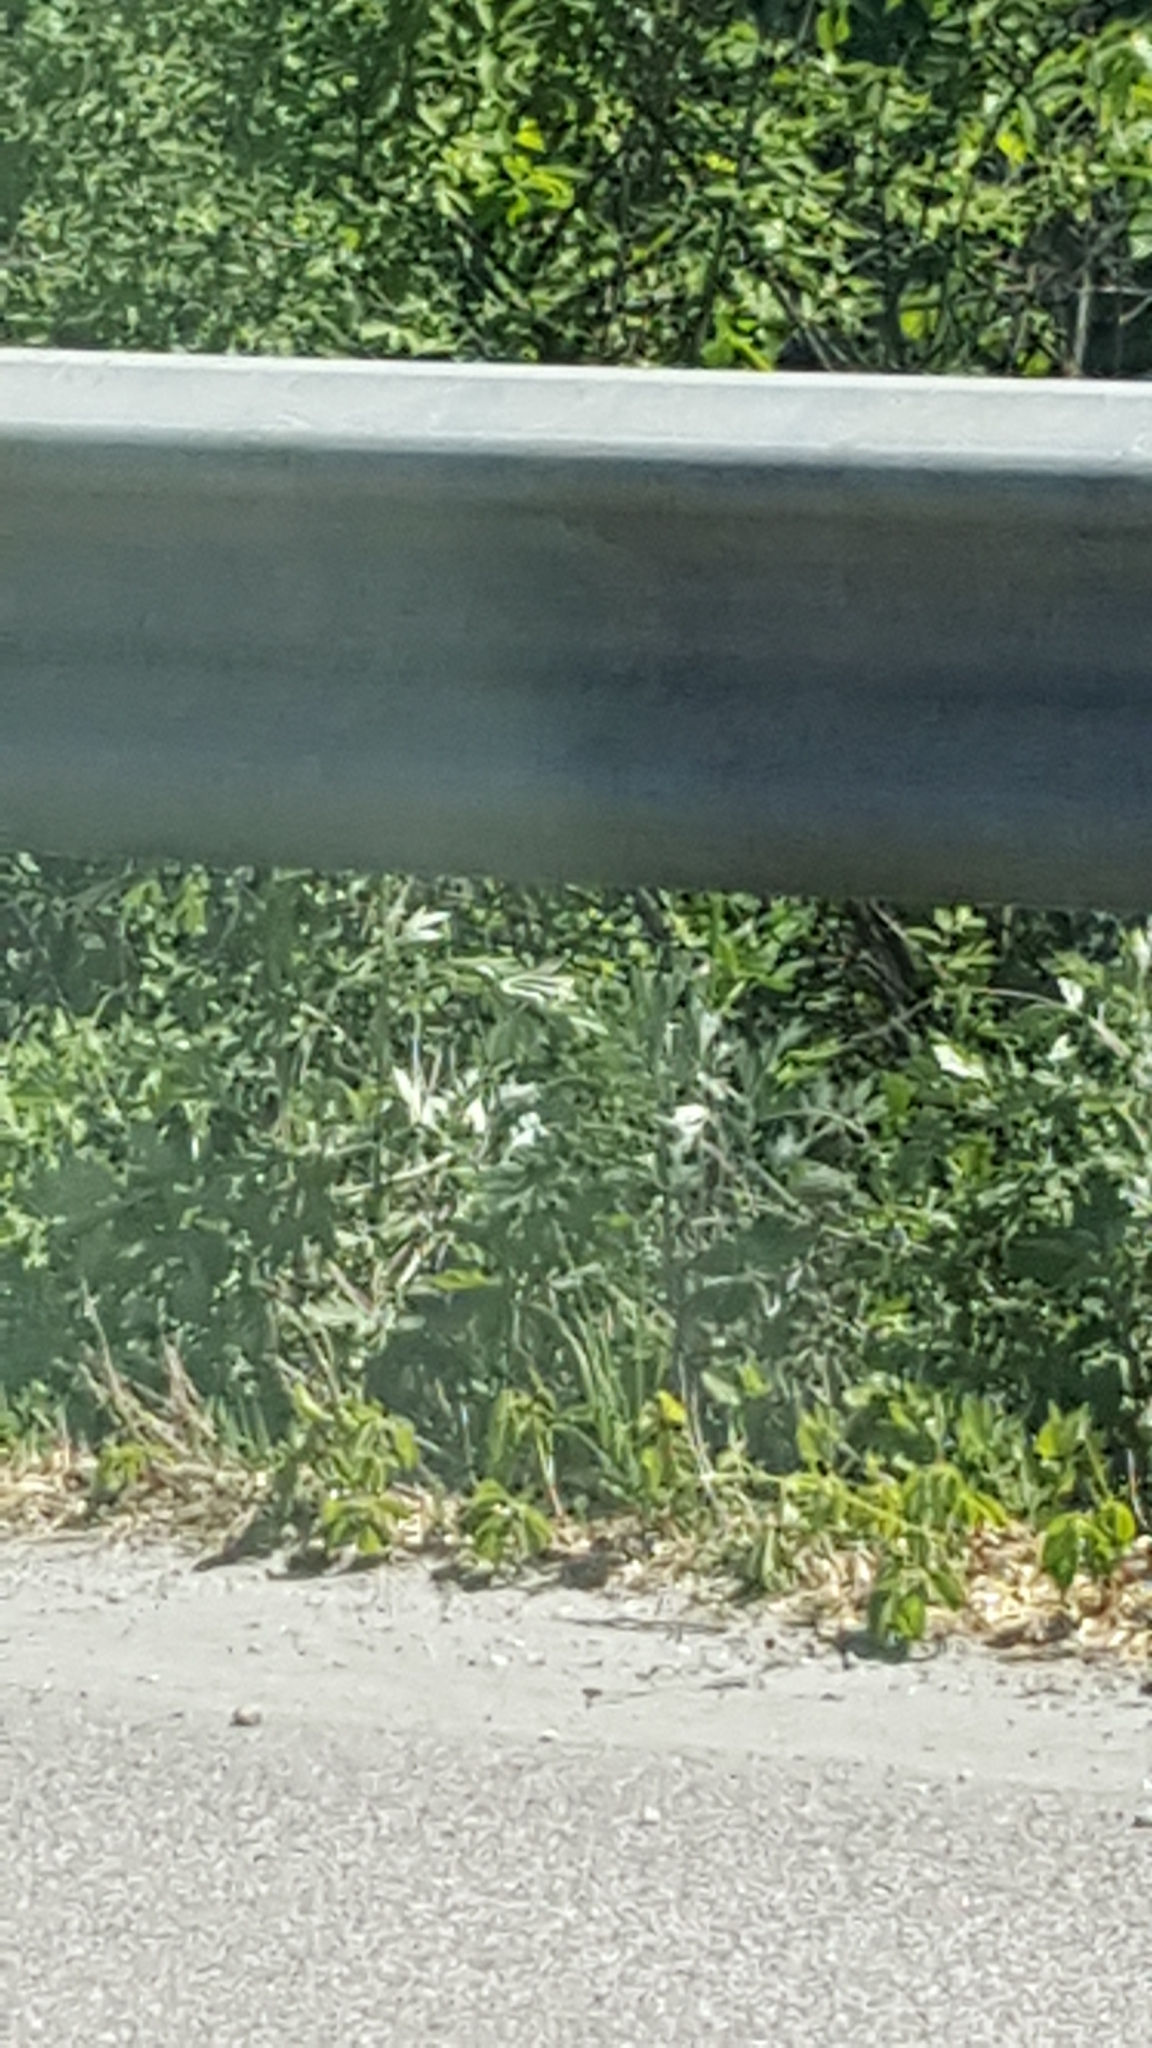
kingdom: Plantae
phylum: Tracheophyta
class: Magnoliopsida
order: Asterales
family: Asteraceae
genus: Artemisia
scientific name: Artemisia vulgaris
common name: Mugwort
